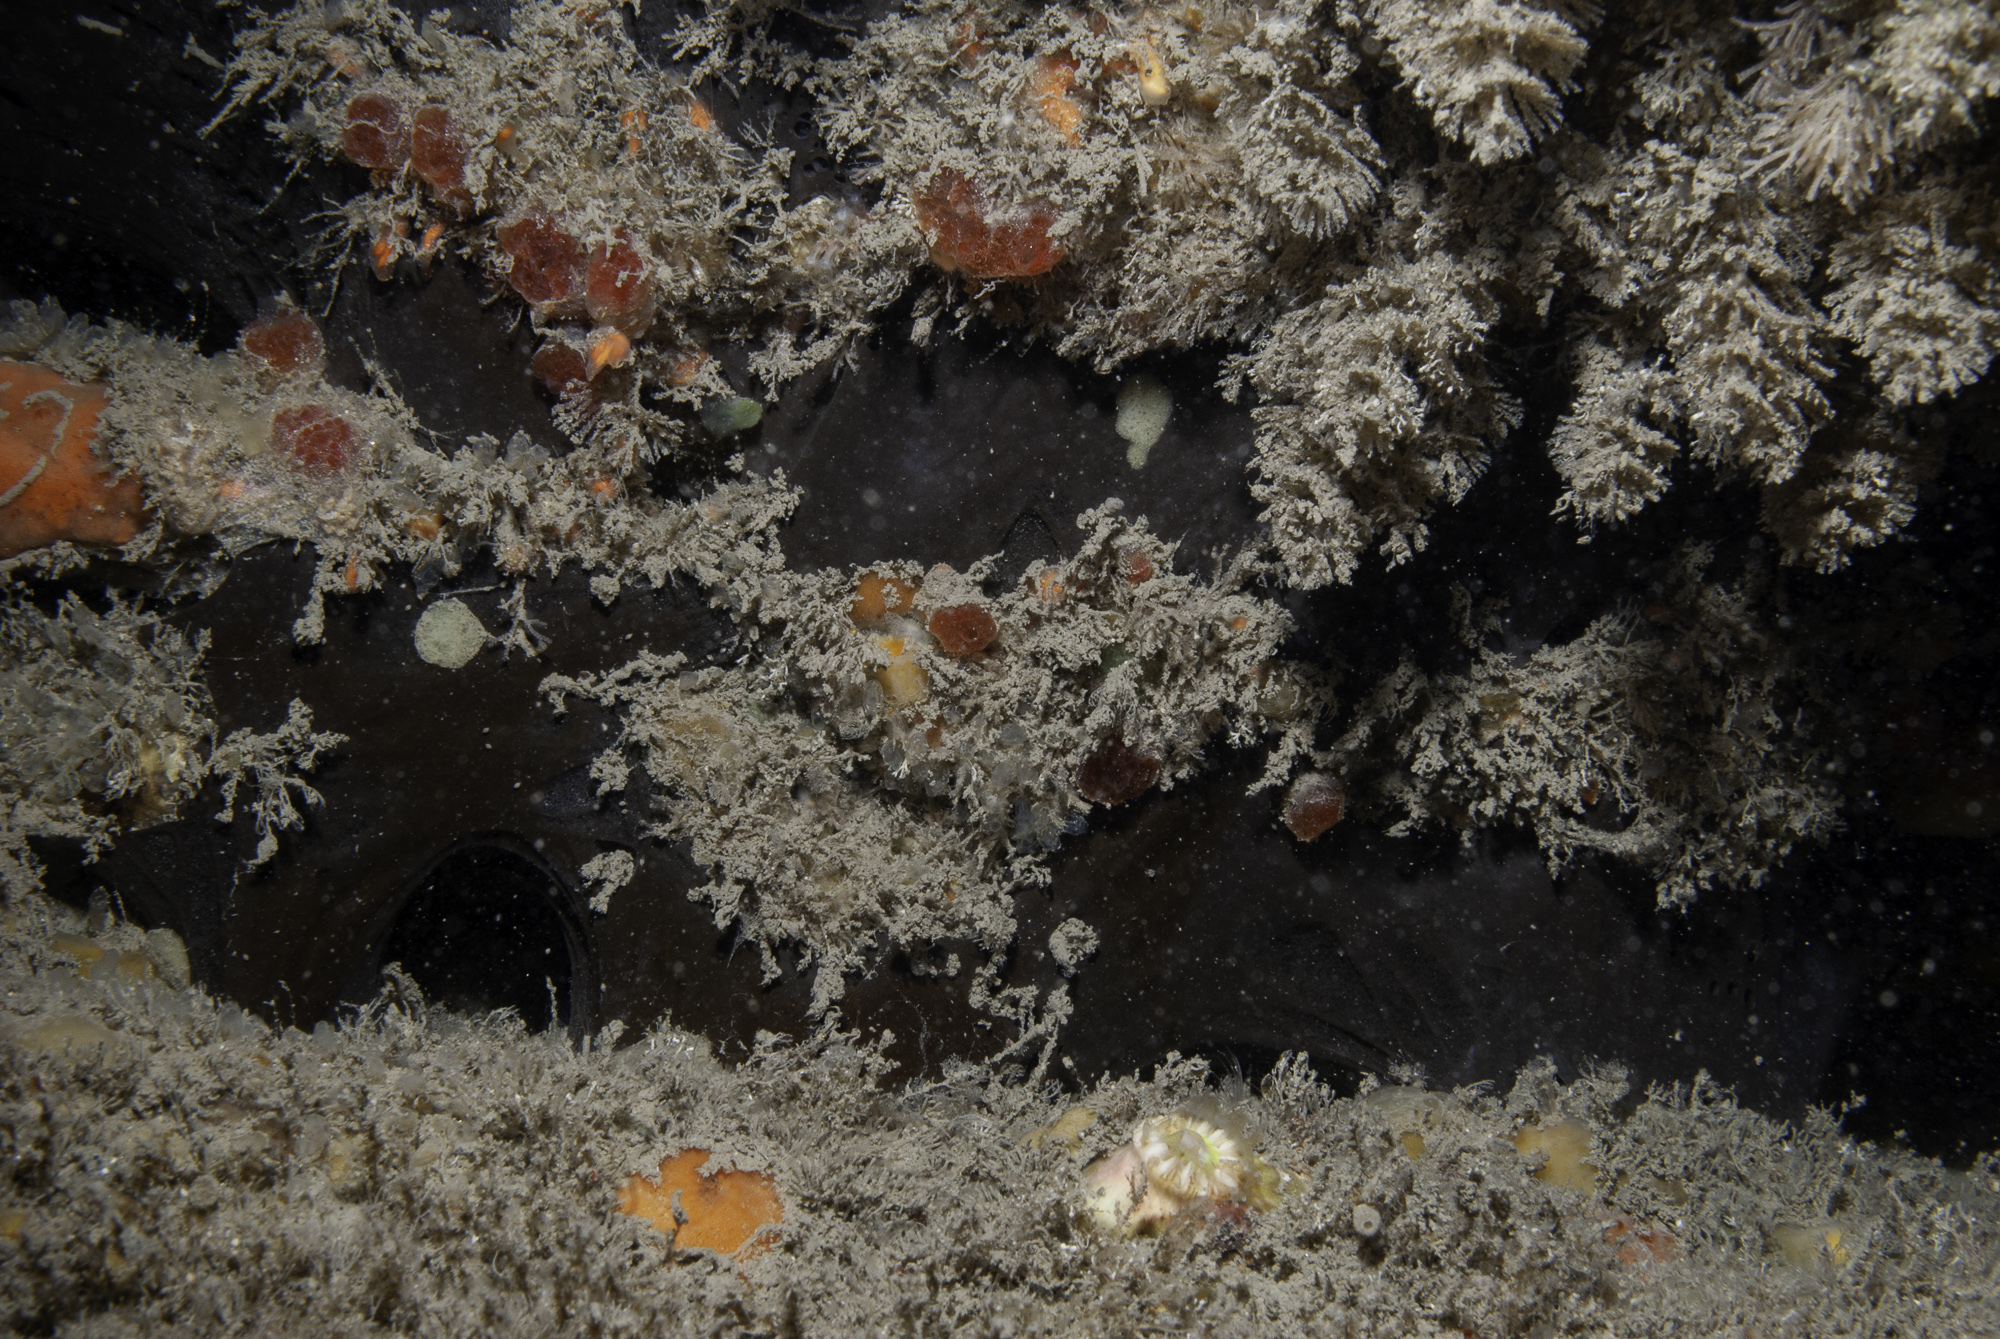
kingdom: Animalia
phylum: Porifera
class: Demospongiae
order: Tetractinellida
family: Ancorinidae
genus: Dercitus
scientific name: Dercitus bucklandi
